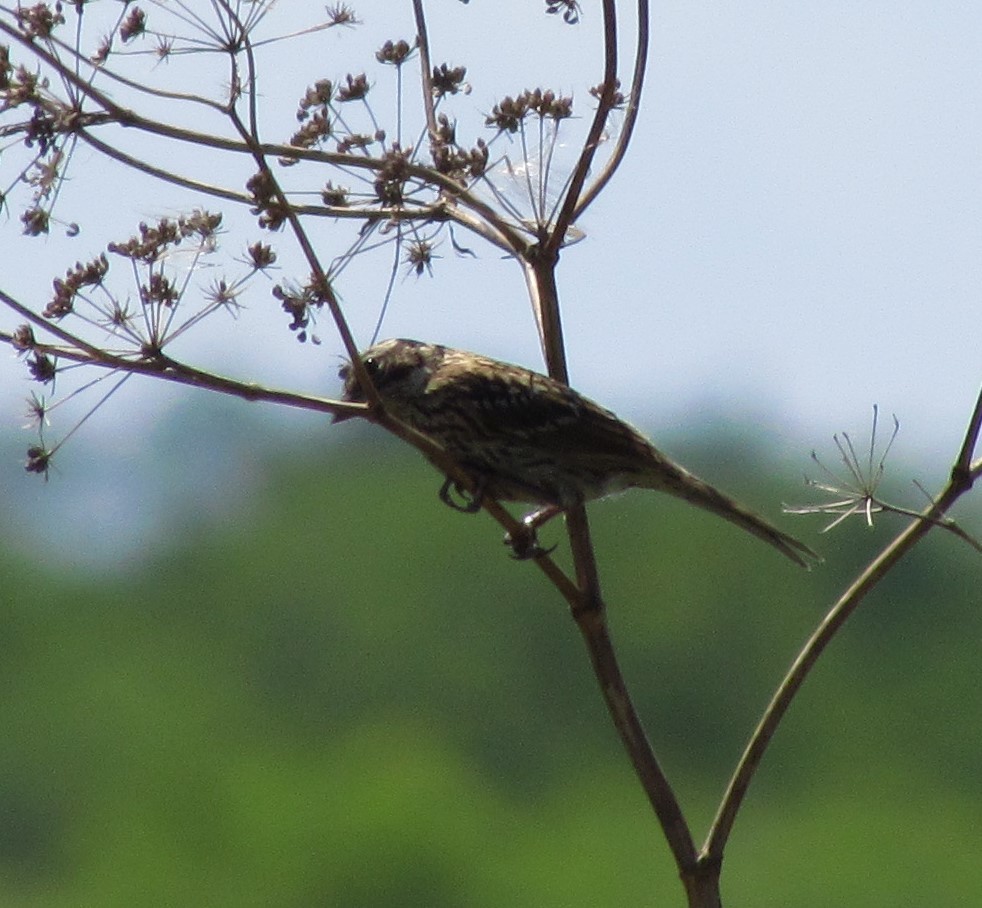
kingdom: Animalia
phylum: Chordata
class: Aves
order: Passeriformes
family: Passerellidae
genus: Zonotrichia
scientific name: Zonotrichia capensis
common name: Rufous-collared sparrow
